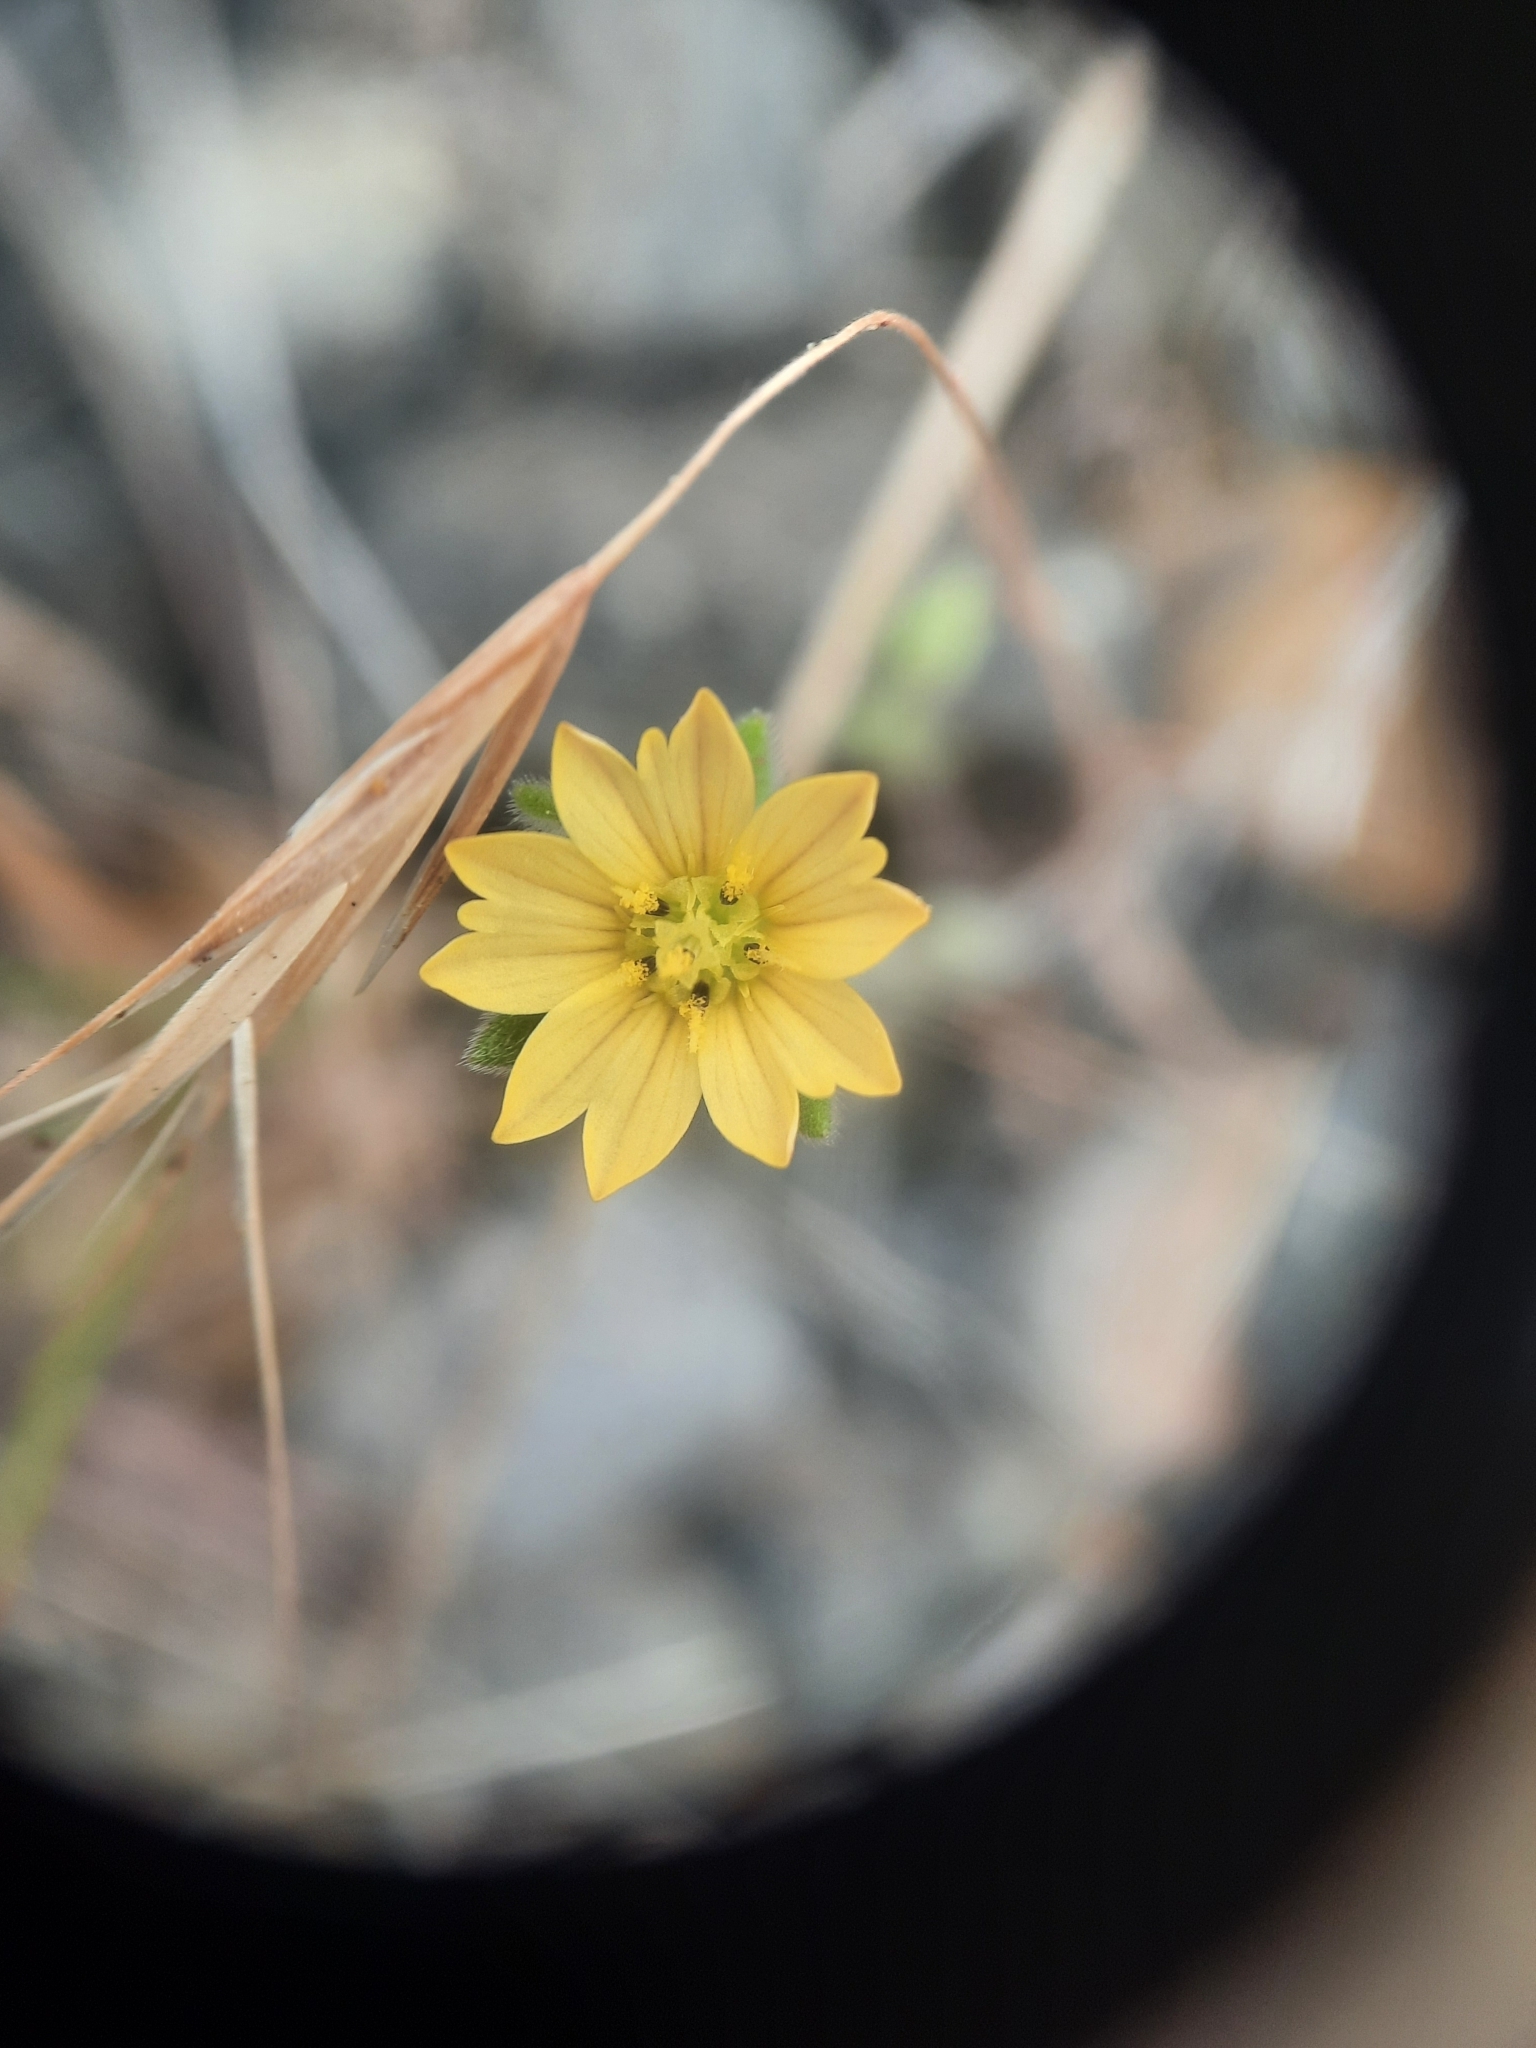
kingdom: Plantae
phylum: Tracheophyta
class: Magnoliopsida
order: Asterales
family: Asteraceae
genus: Lagophylla
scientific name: Lagophylla ramosissima
